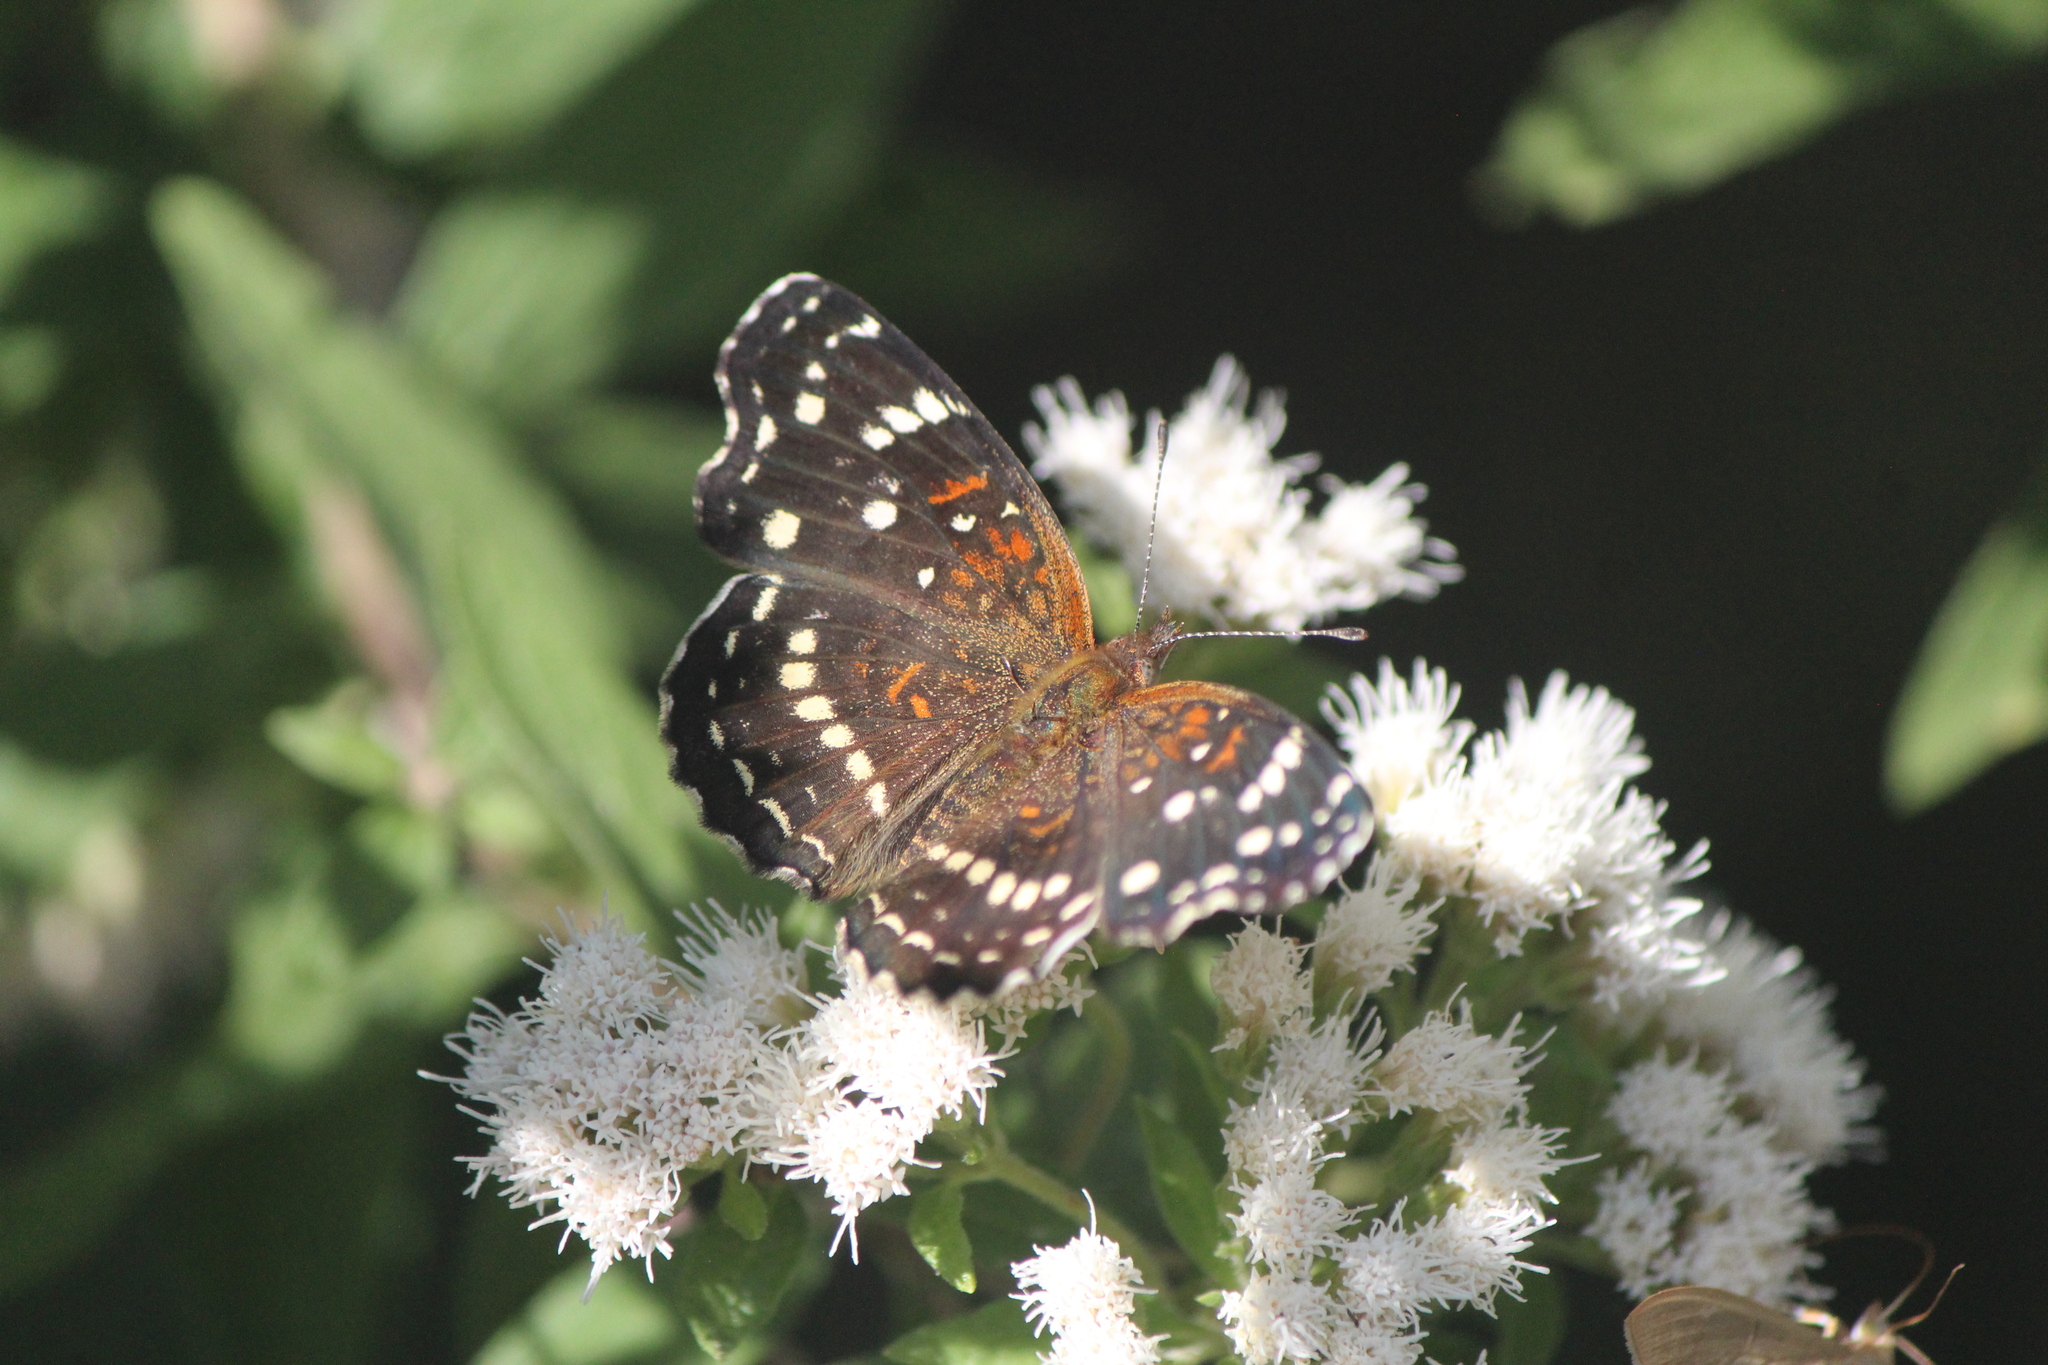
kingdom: Animalia
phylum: Arthropoda
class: Insecta
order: Lepidoptera
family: Nymphalidae
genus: Anthanassa
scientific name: Anthanassa texana
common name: Texan crescent
